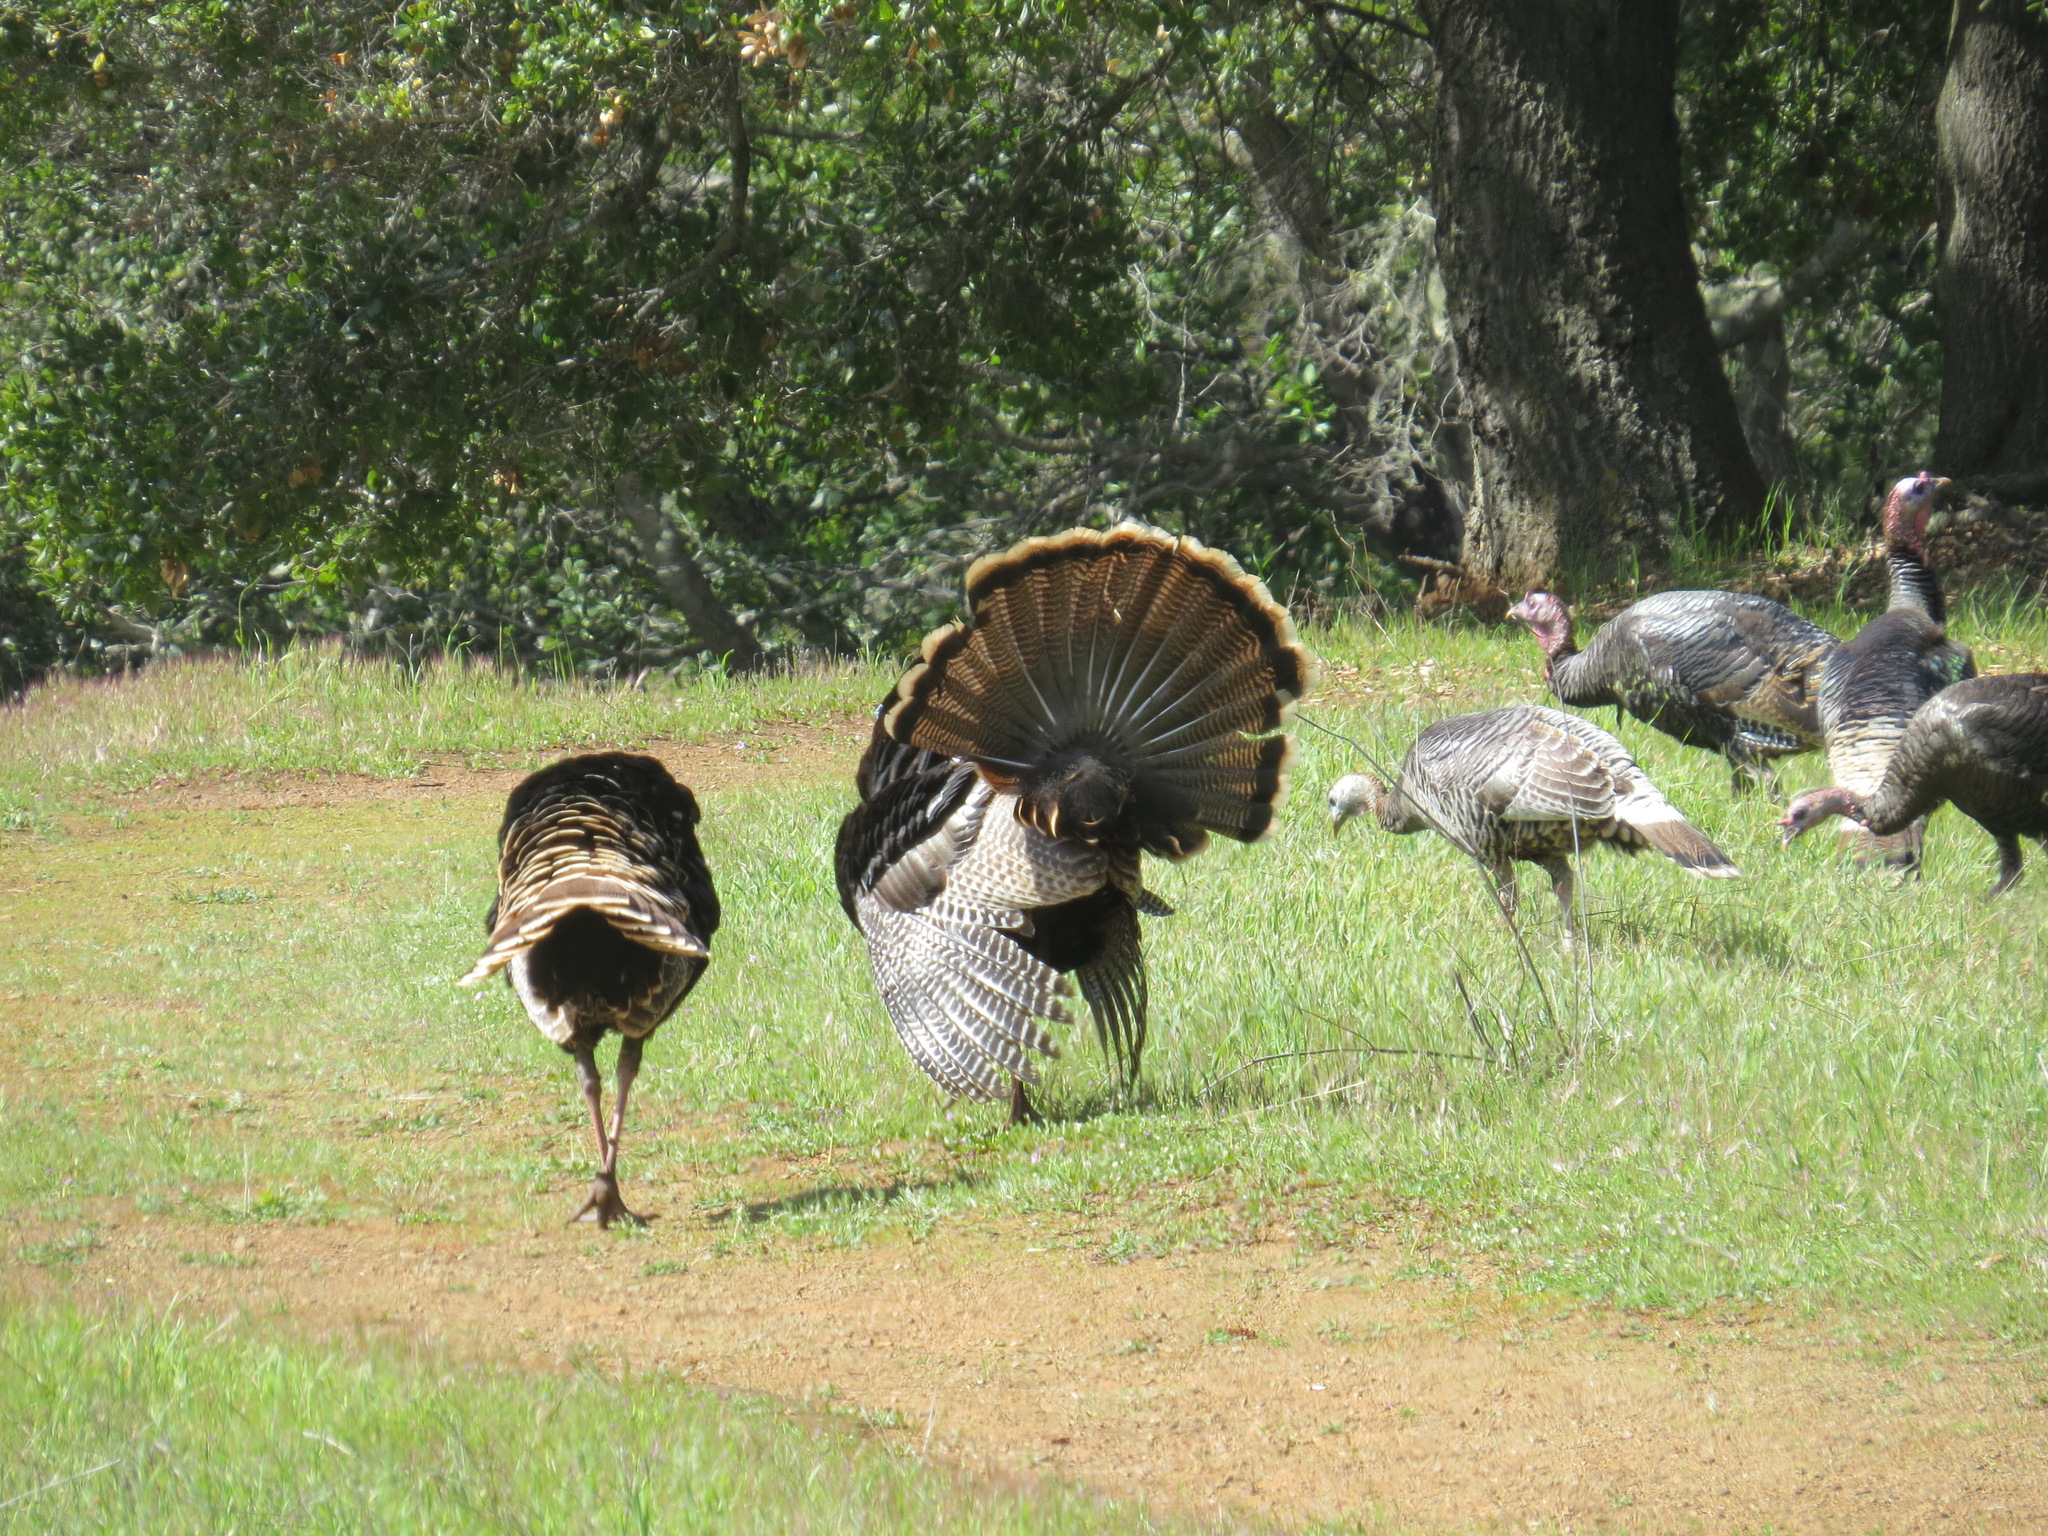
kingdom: Animalia
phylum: Chordata
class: Aves
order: Galliformes
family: Phasianidae
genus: Meleagris
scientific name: Meleagris gallopavo
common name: Wild turkey
